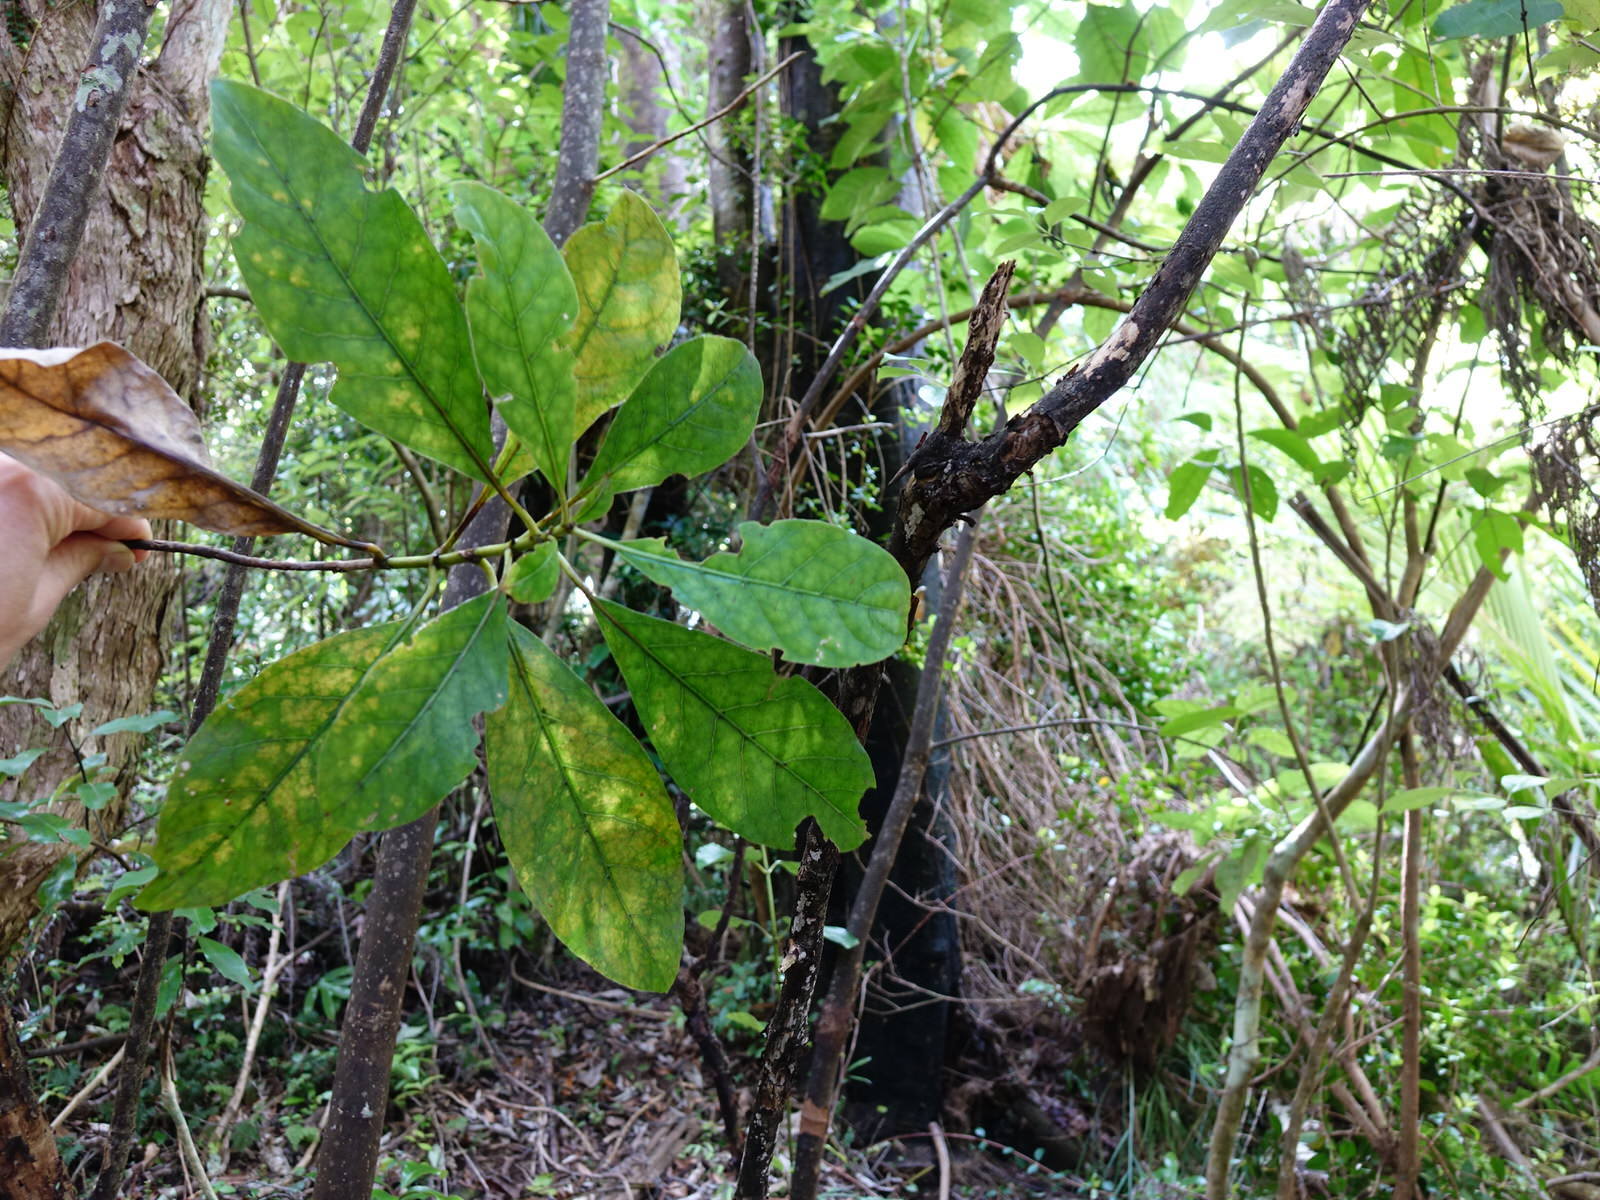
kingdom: Plantae
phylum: Tracheophyta
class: Magnoliopsida
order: Gentianales
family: Rubiaceae
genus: Coprosma
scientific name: Coprosma autumnalis
